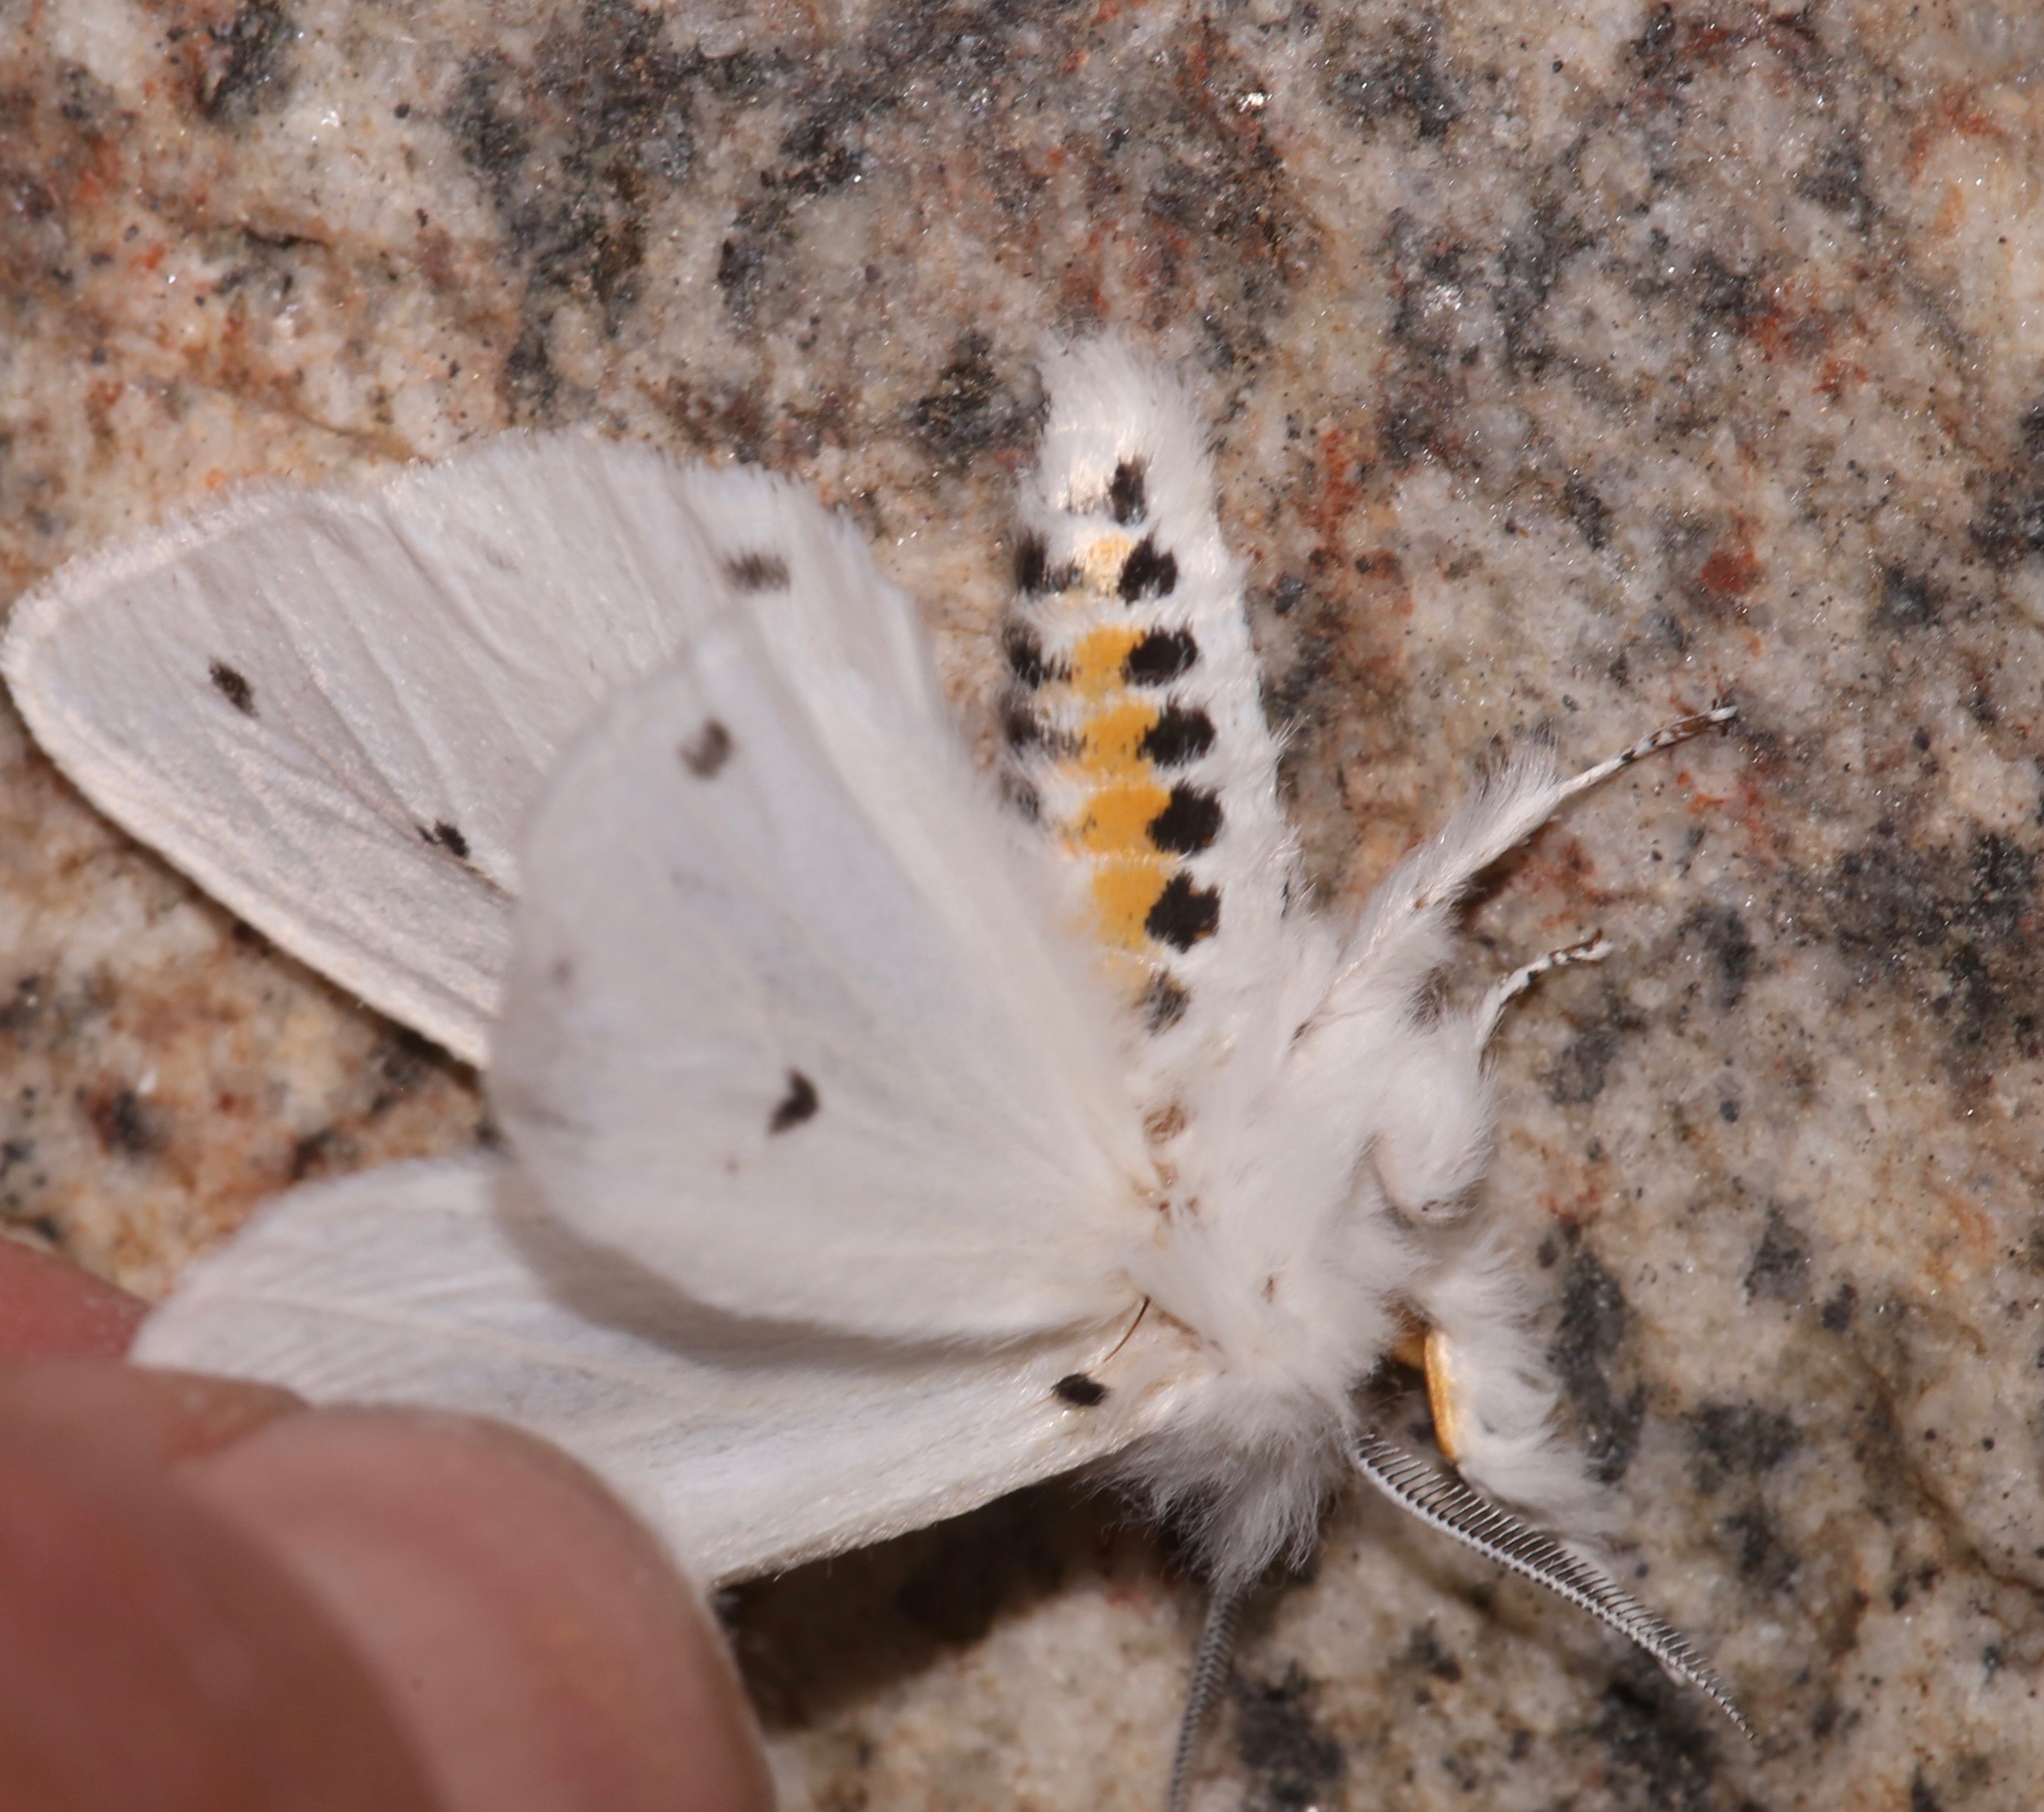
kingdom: Animalia
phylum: Arthropoda
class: Insecta
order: Lepidoptera
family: Erebidae
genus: Spilosoma
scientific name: Spilosoma virginica
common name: Virginia tiger moth
